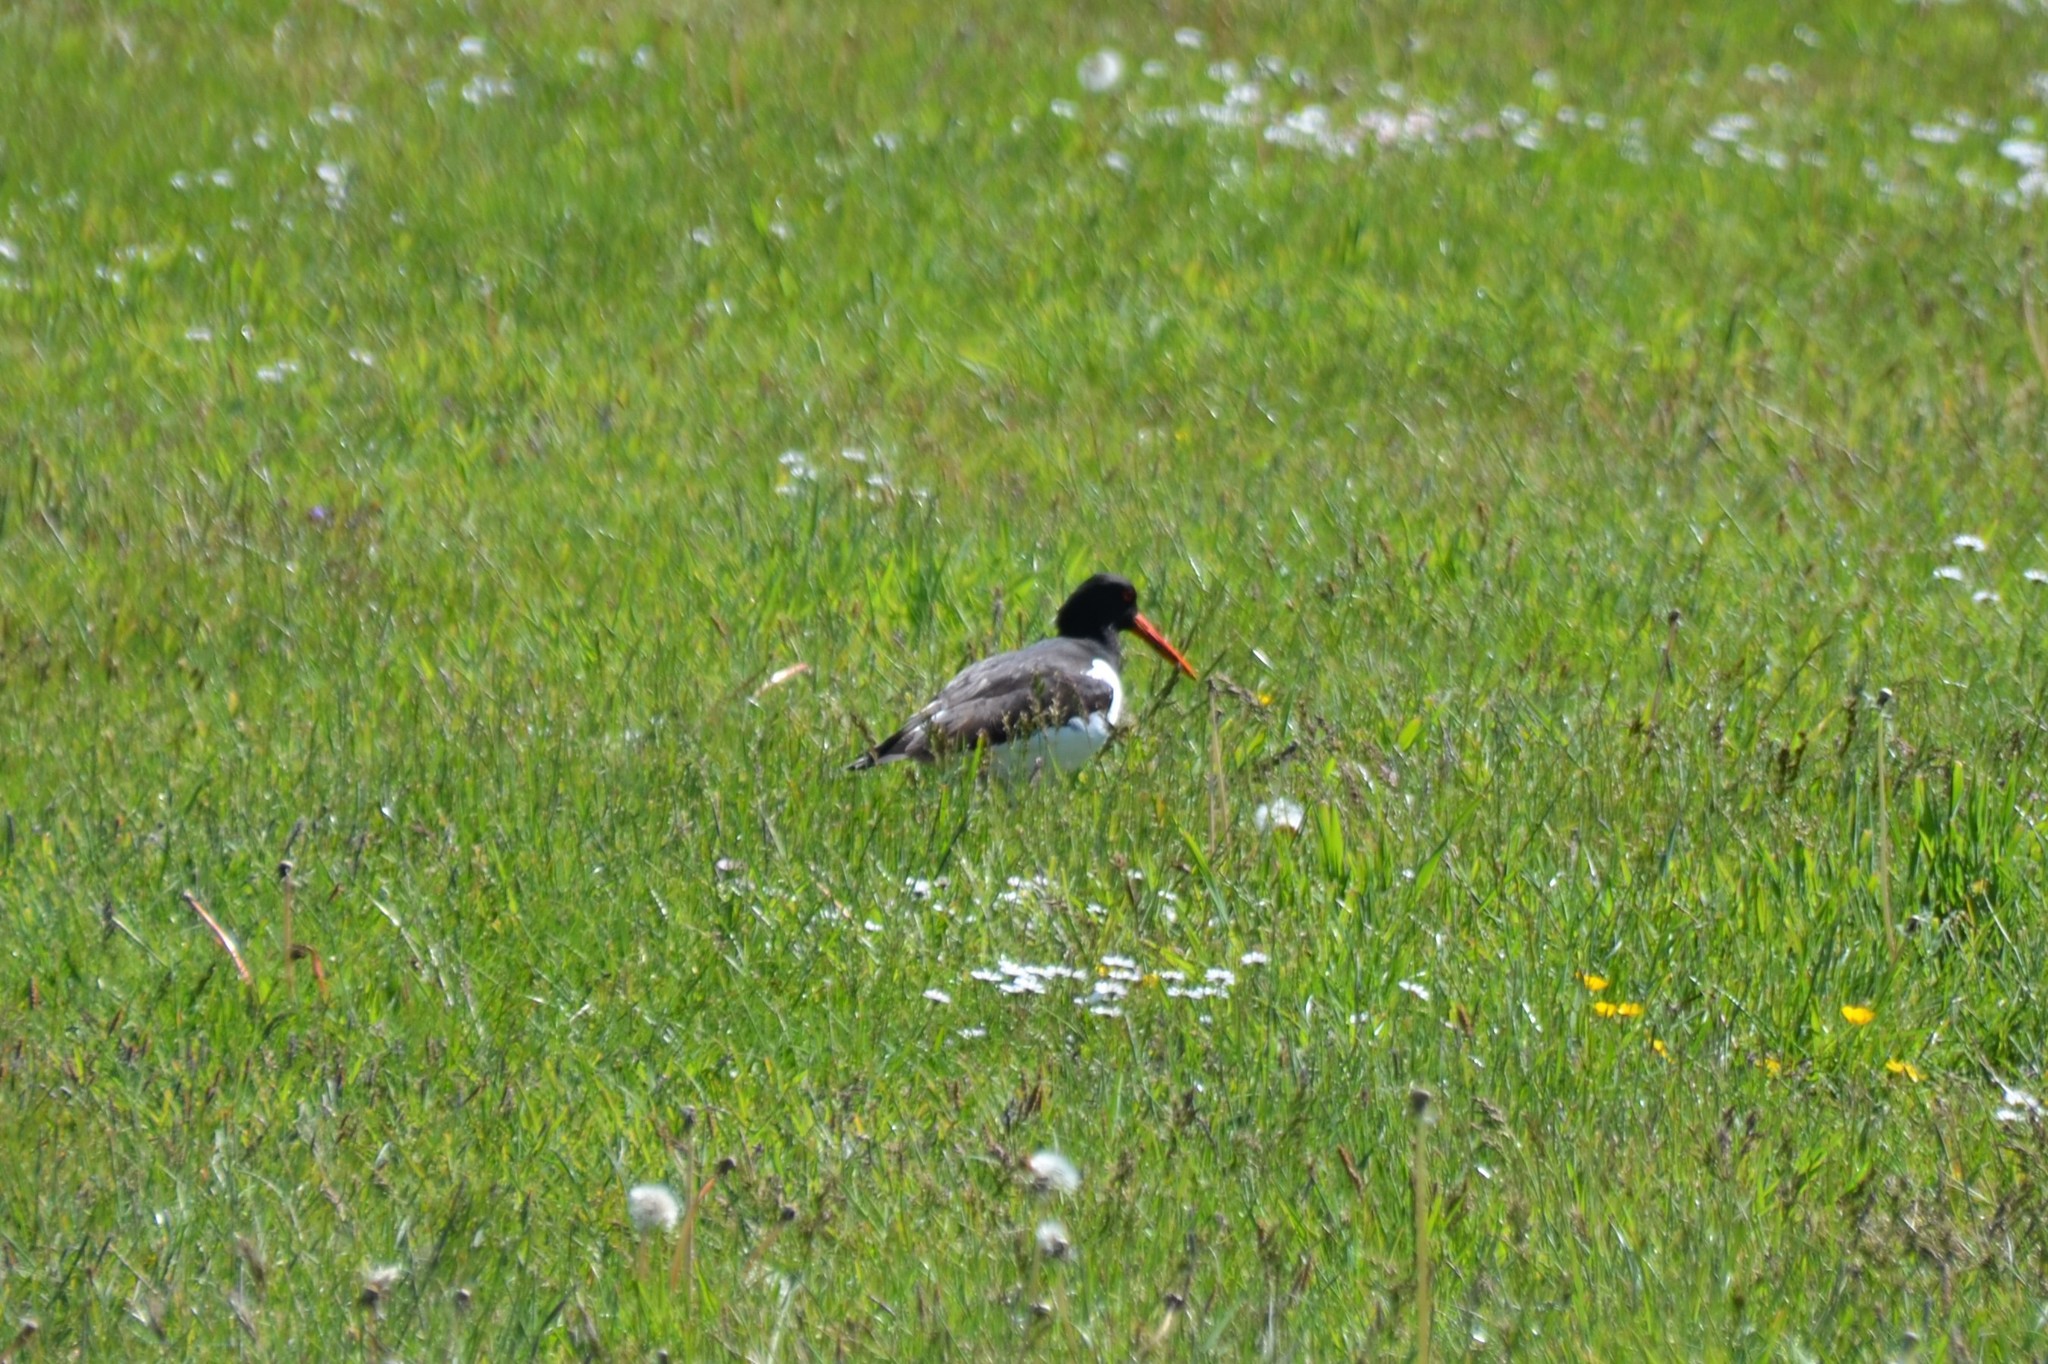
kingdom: Animalia
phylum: Chordata
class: Aves
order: Charadriiformes
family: Haematopodidae
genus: Haematopus
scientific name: Haematopus ostralegus
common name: Eurasian oystercatcher
